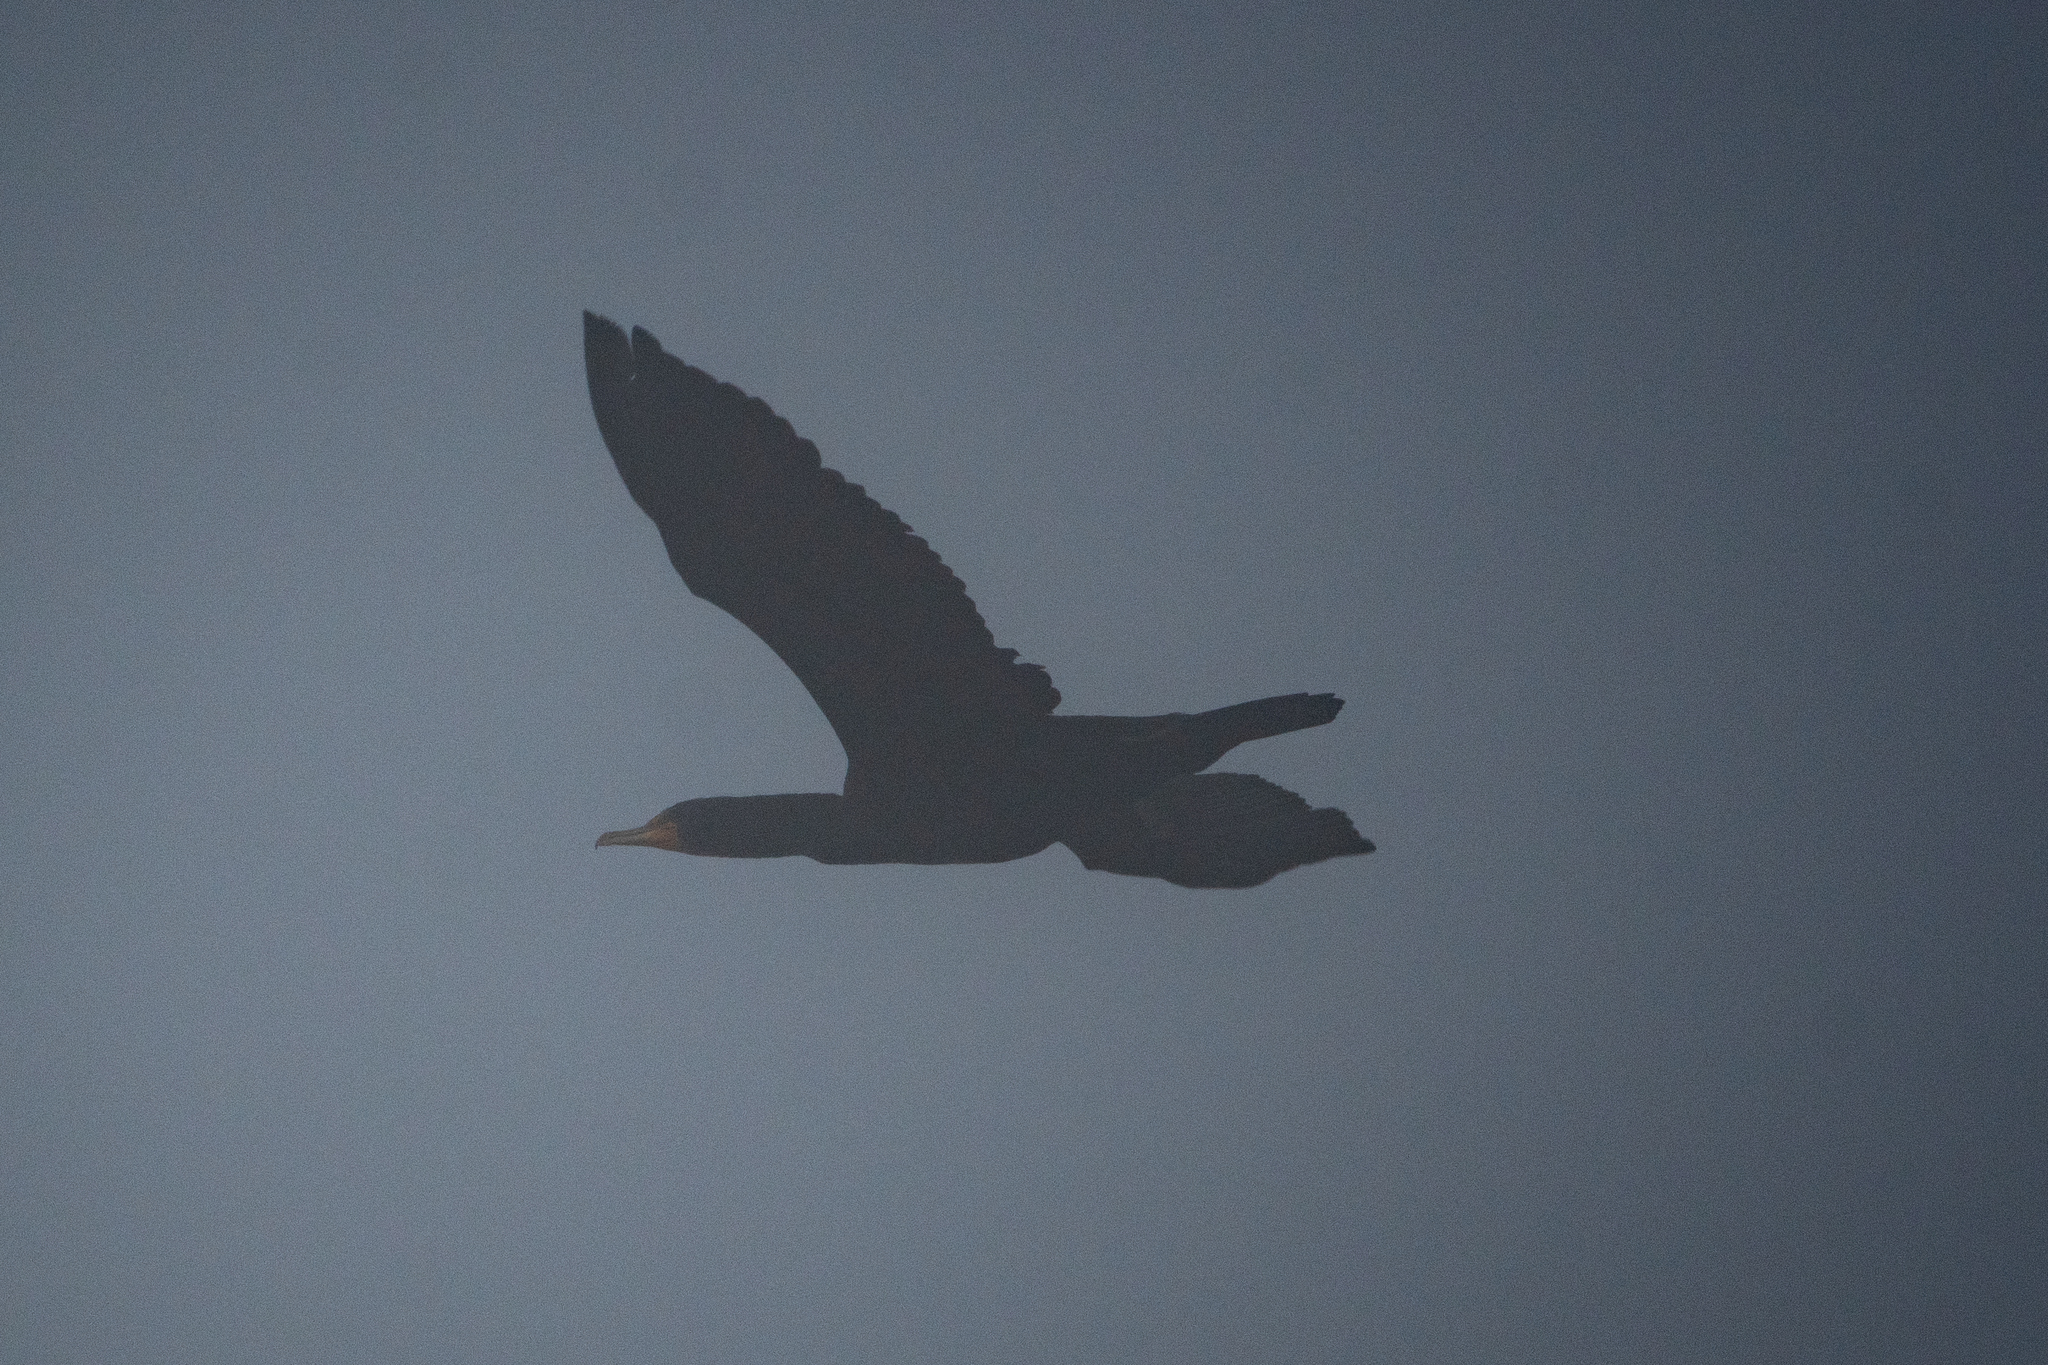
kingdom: Animalia
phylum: Chordata
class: Aves
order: Suliformes
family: Phalacrocoracidae
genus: Phalacrocorax
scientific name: Phalacrocorax auritus
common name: Double-crested cormorant
